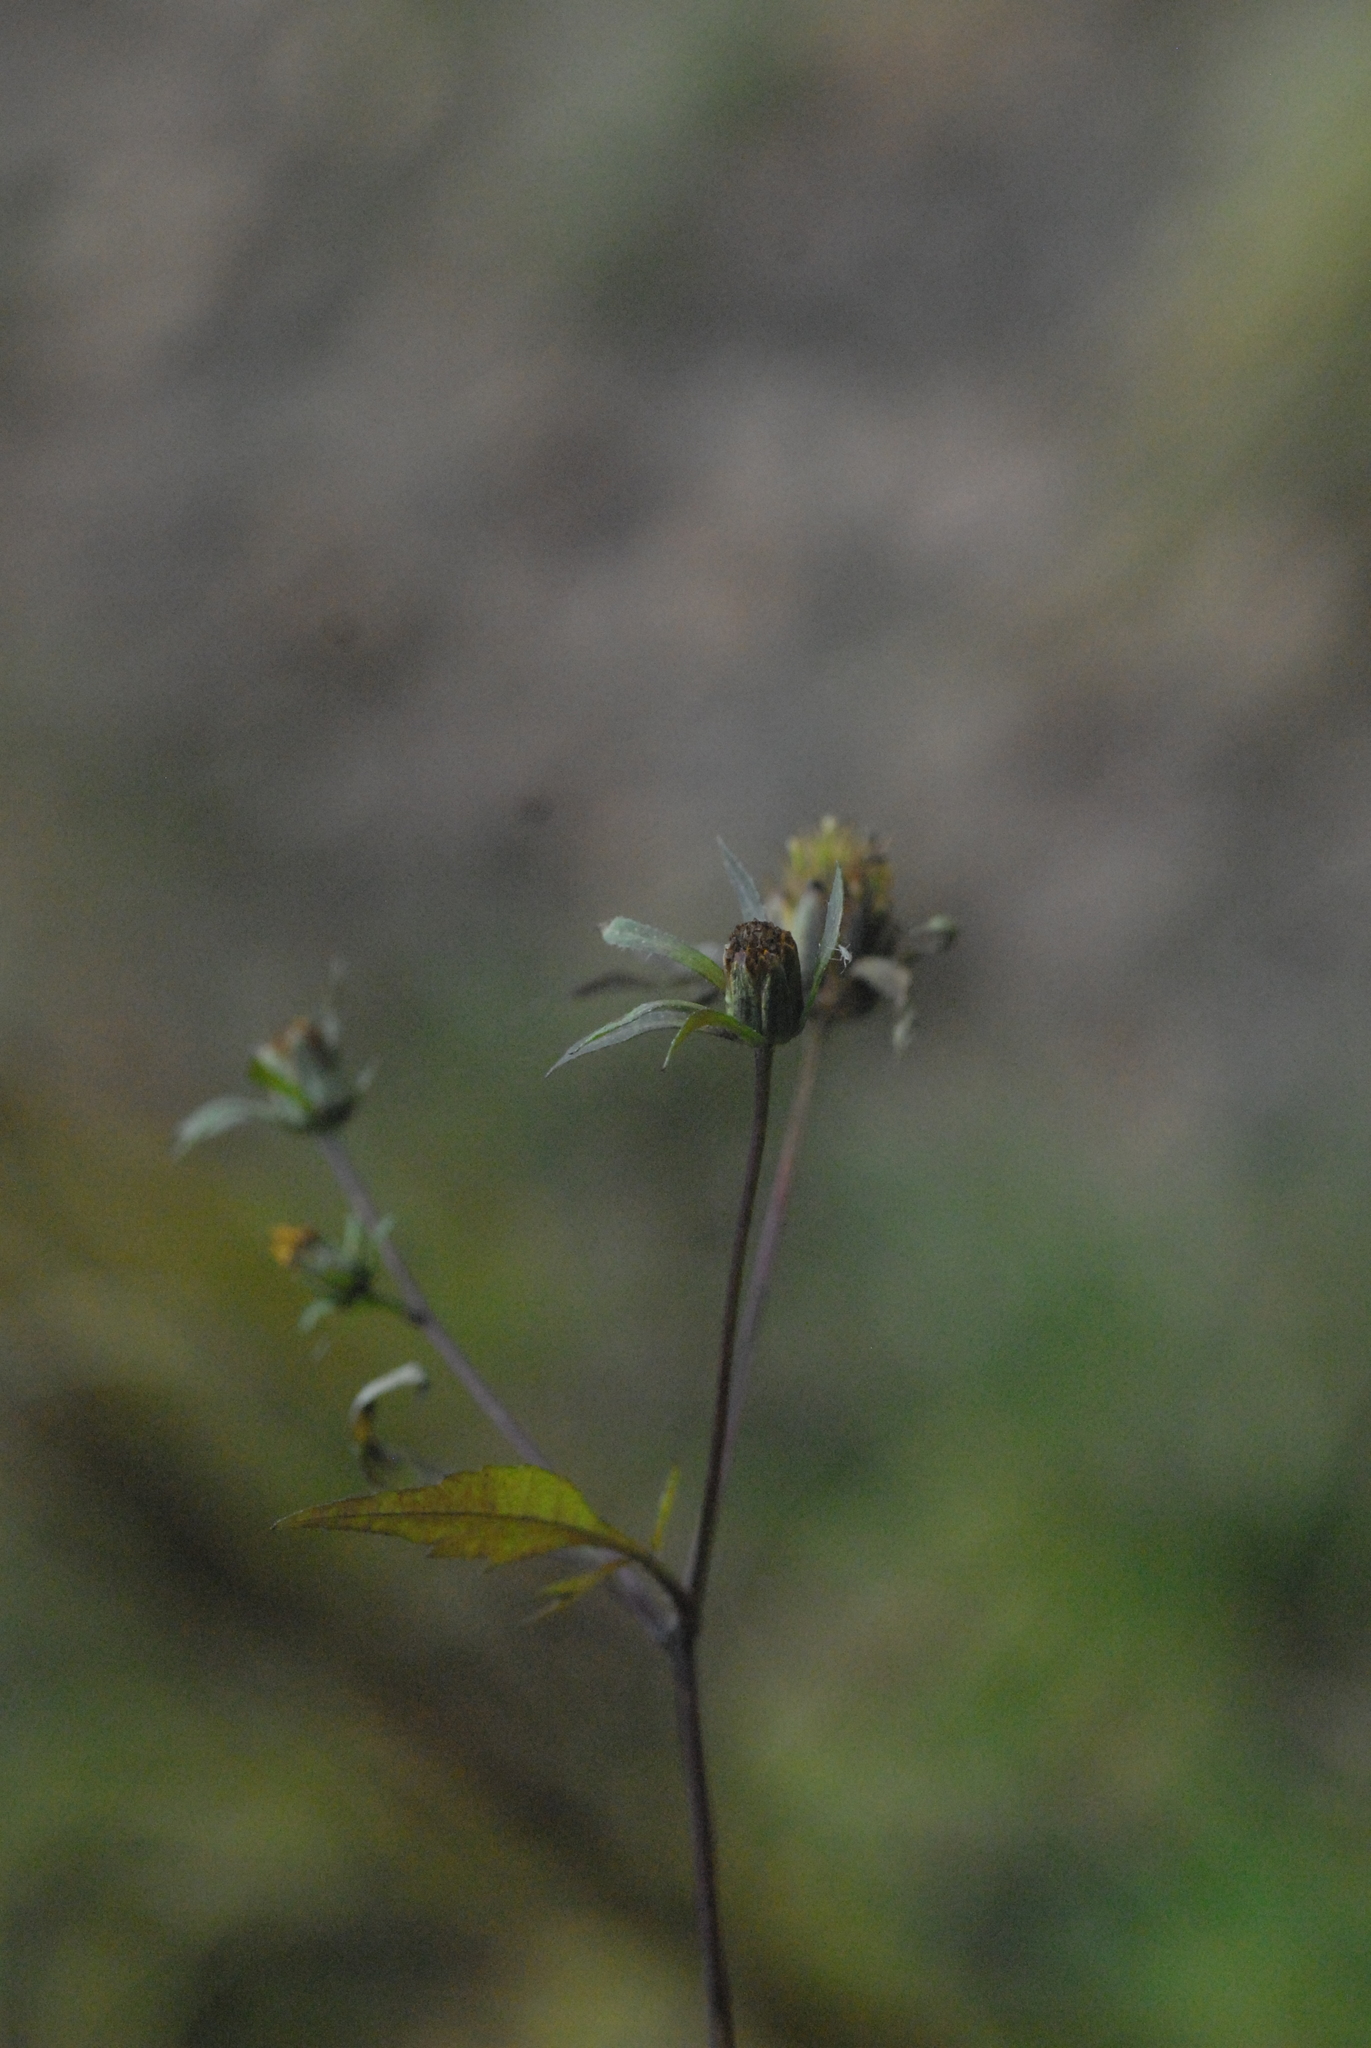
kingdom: Plantae
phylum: Tracheophyta
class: Magnoliopsida
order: Asterales
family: Asteraceae
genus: Bidens
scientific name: Bidens frondosa
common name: Beggarticks
